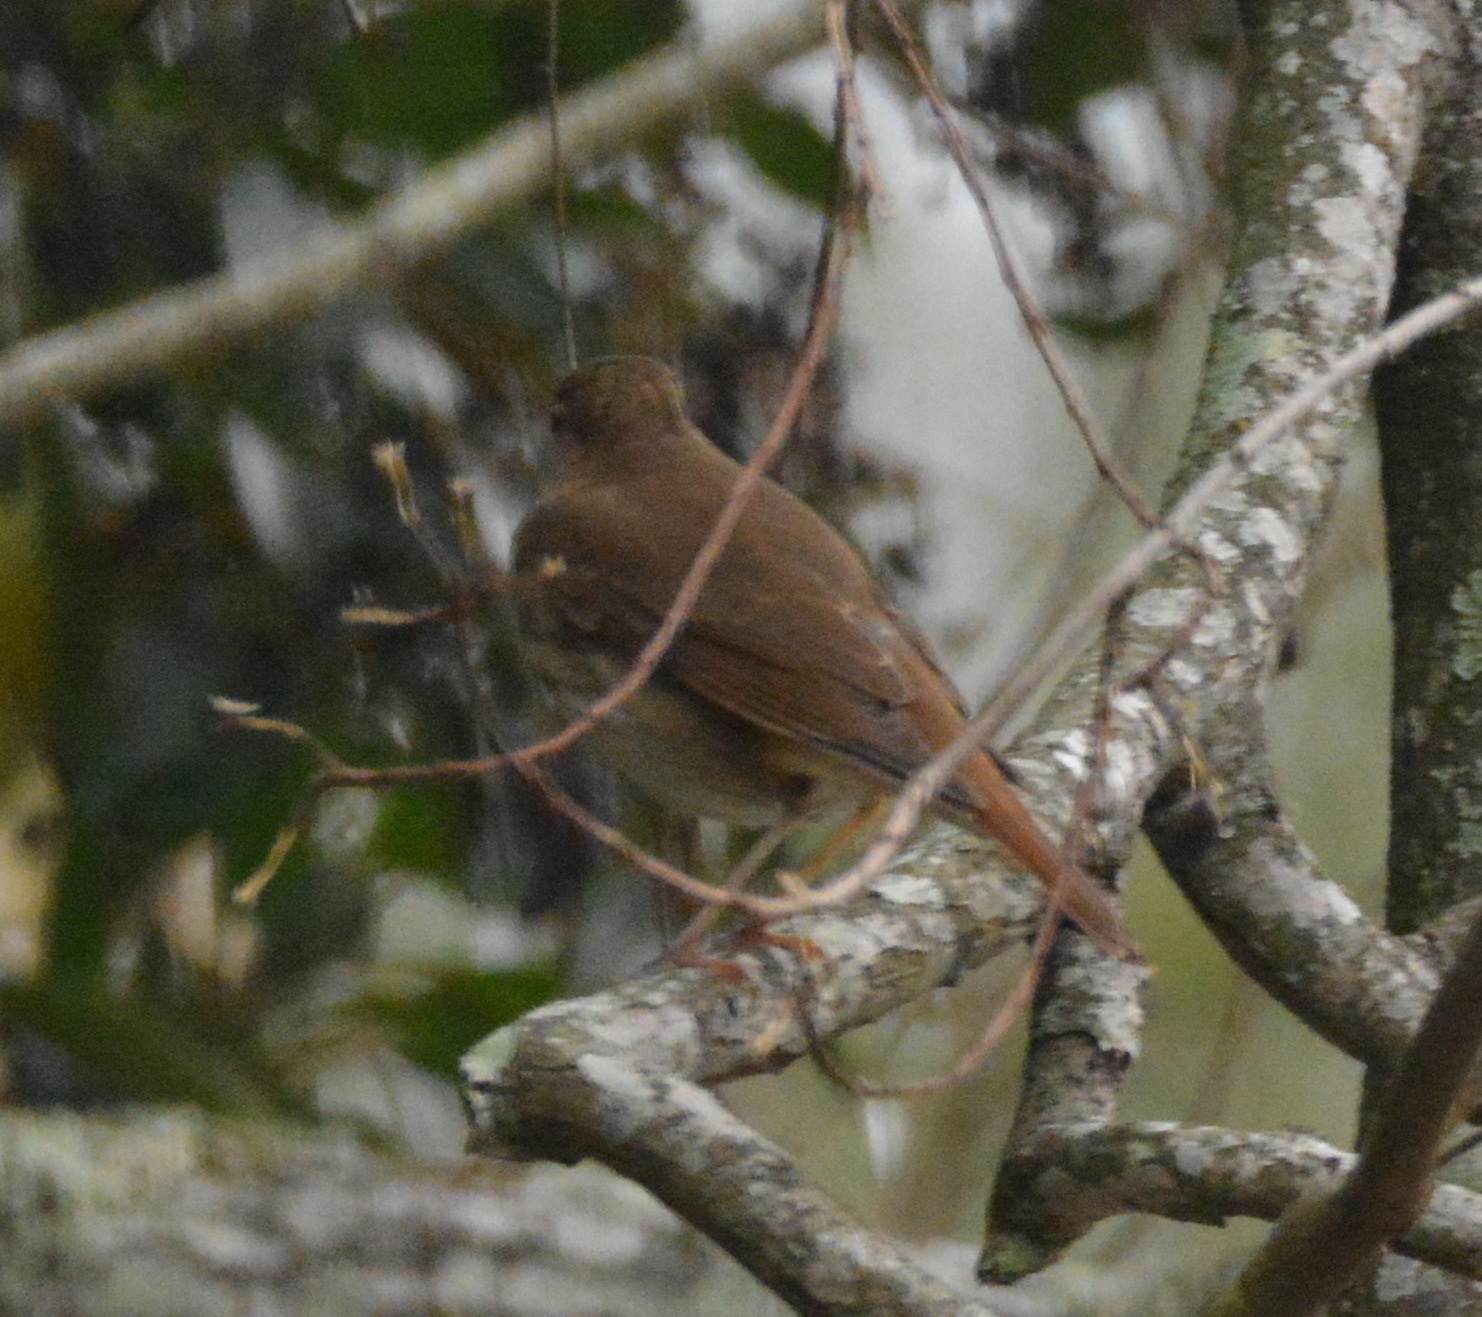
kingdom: Animalia
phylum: Chordata
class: Aves
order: Passeriformes
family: Turdidae
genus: Catharus
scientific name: Catharus guttatus
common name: Hermit thrush
